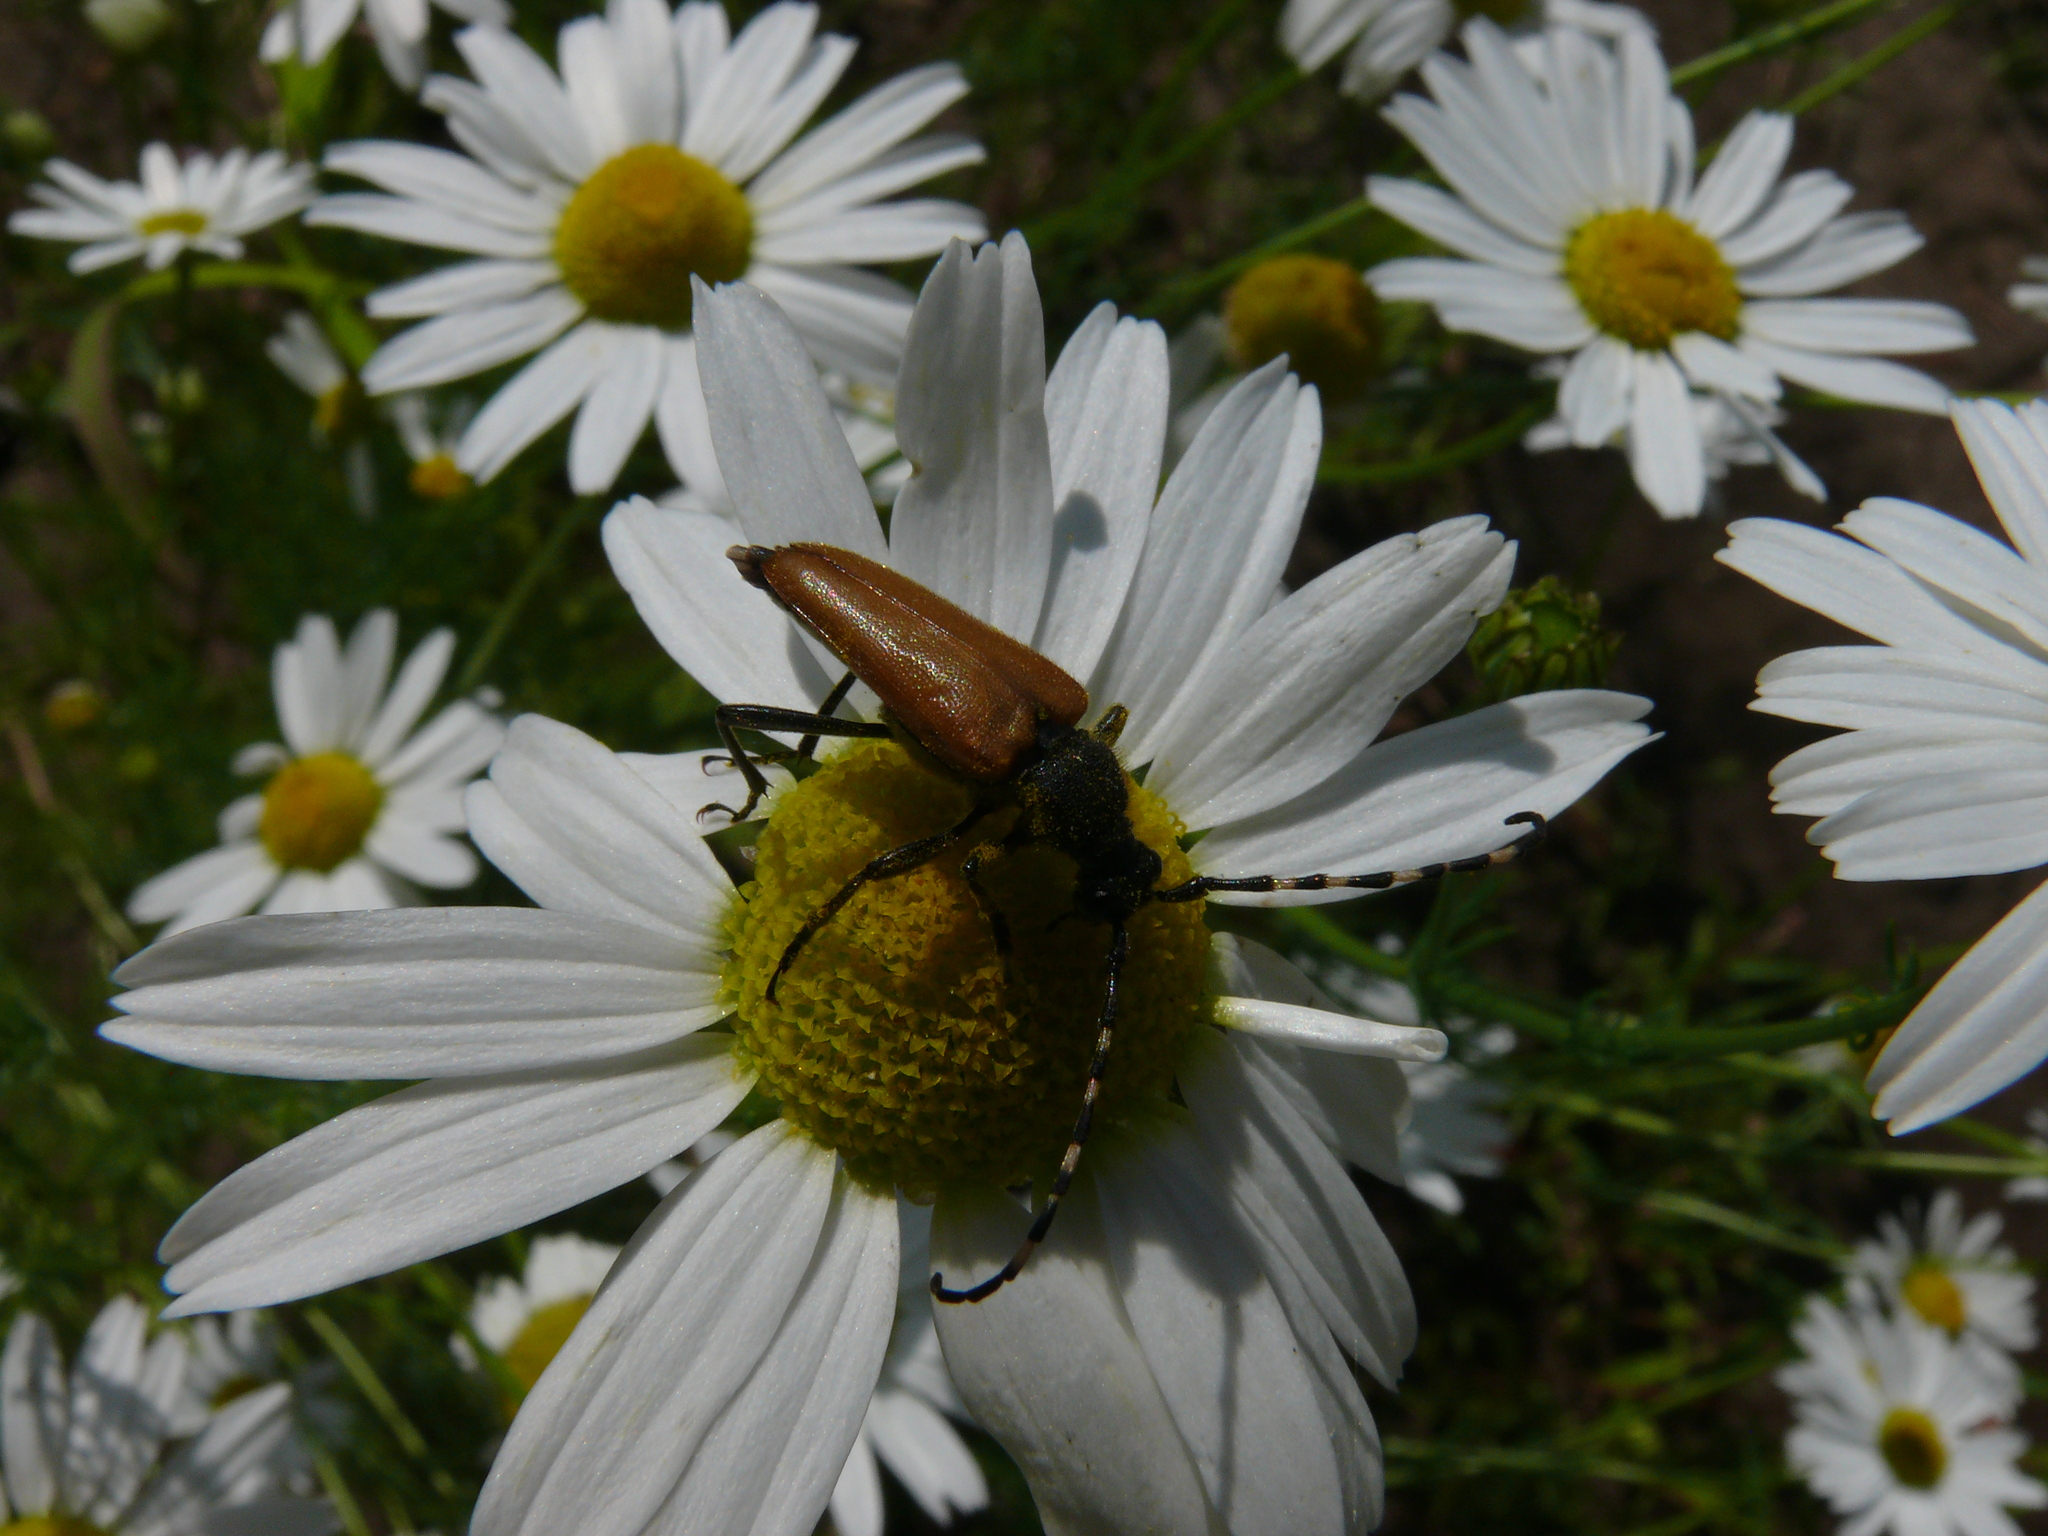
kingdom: Animalia
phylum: Arthropoda
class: Insecta
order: Coleoptera
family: Cerambycidae
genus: Stictoleptura
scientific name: Stictoleptura variicornis
